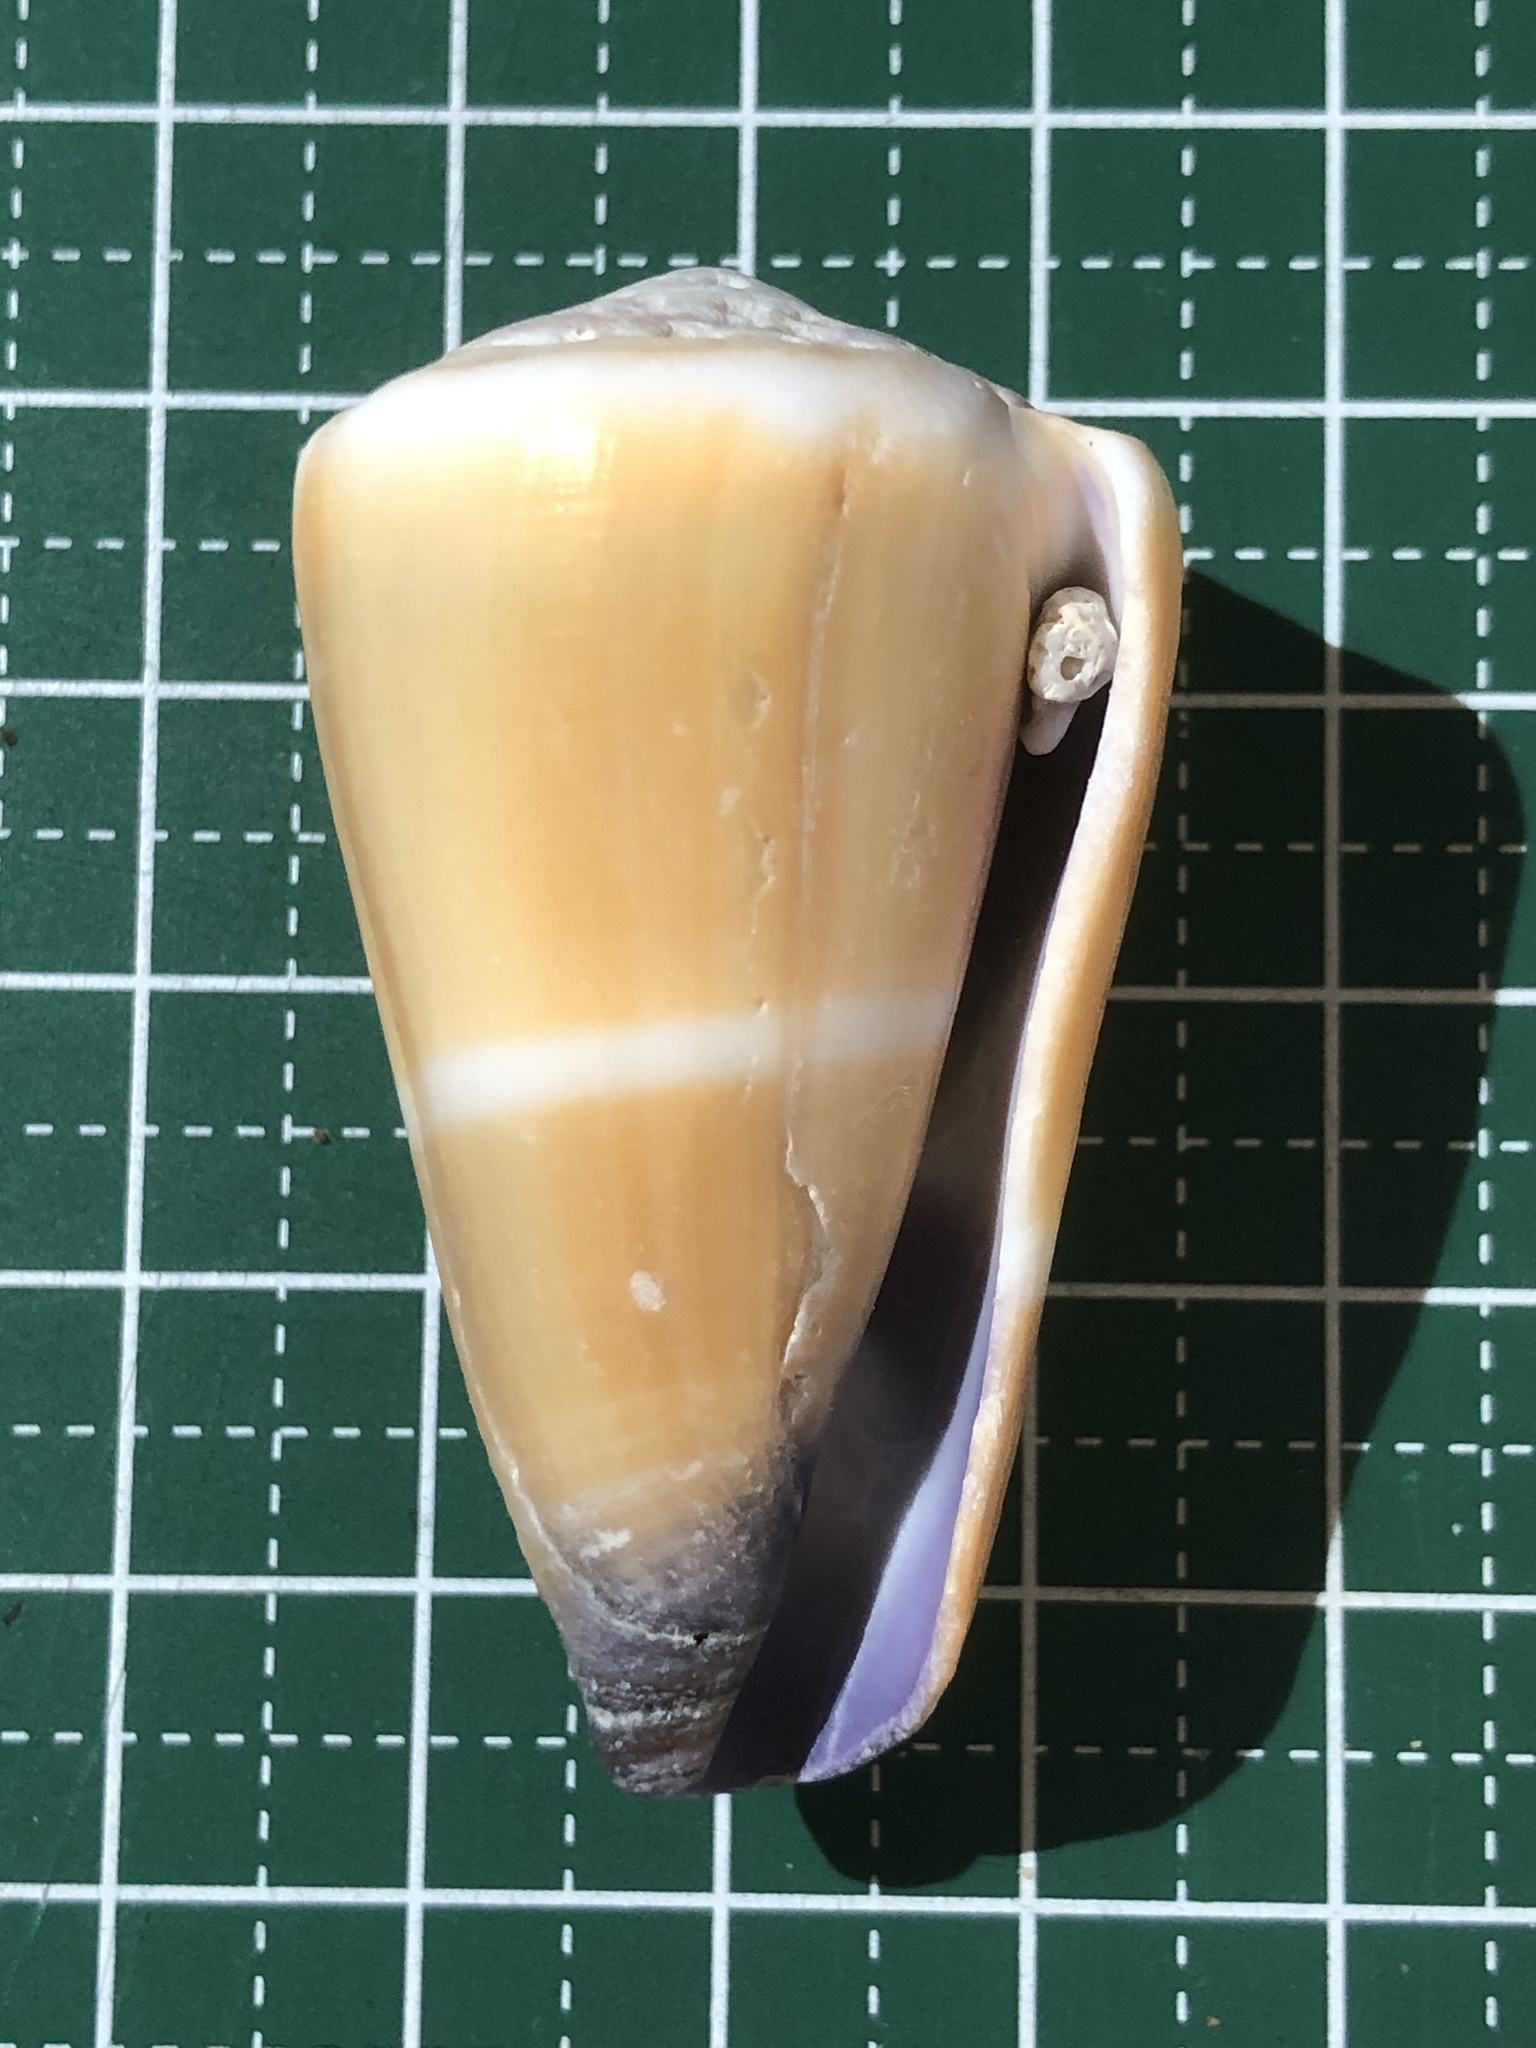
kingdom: Animalia
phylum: Mollusca
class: Gastropoda
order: Neogastropoda
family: Conidae
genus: Conus
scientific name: Conus flavidus
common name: Golden-yellow cone
